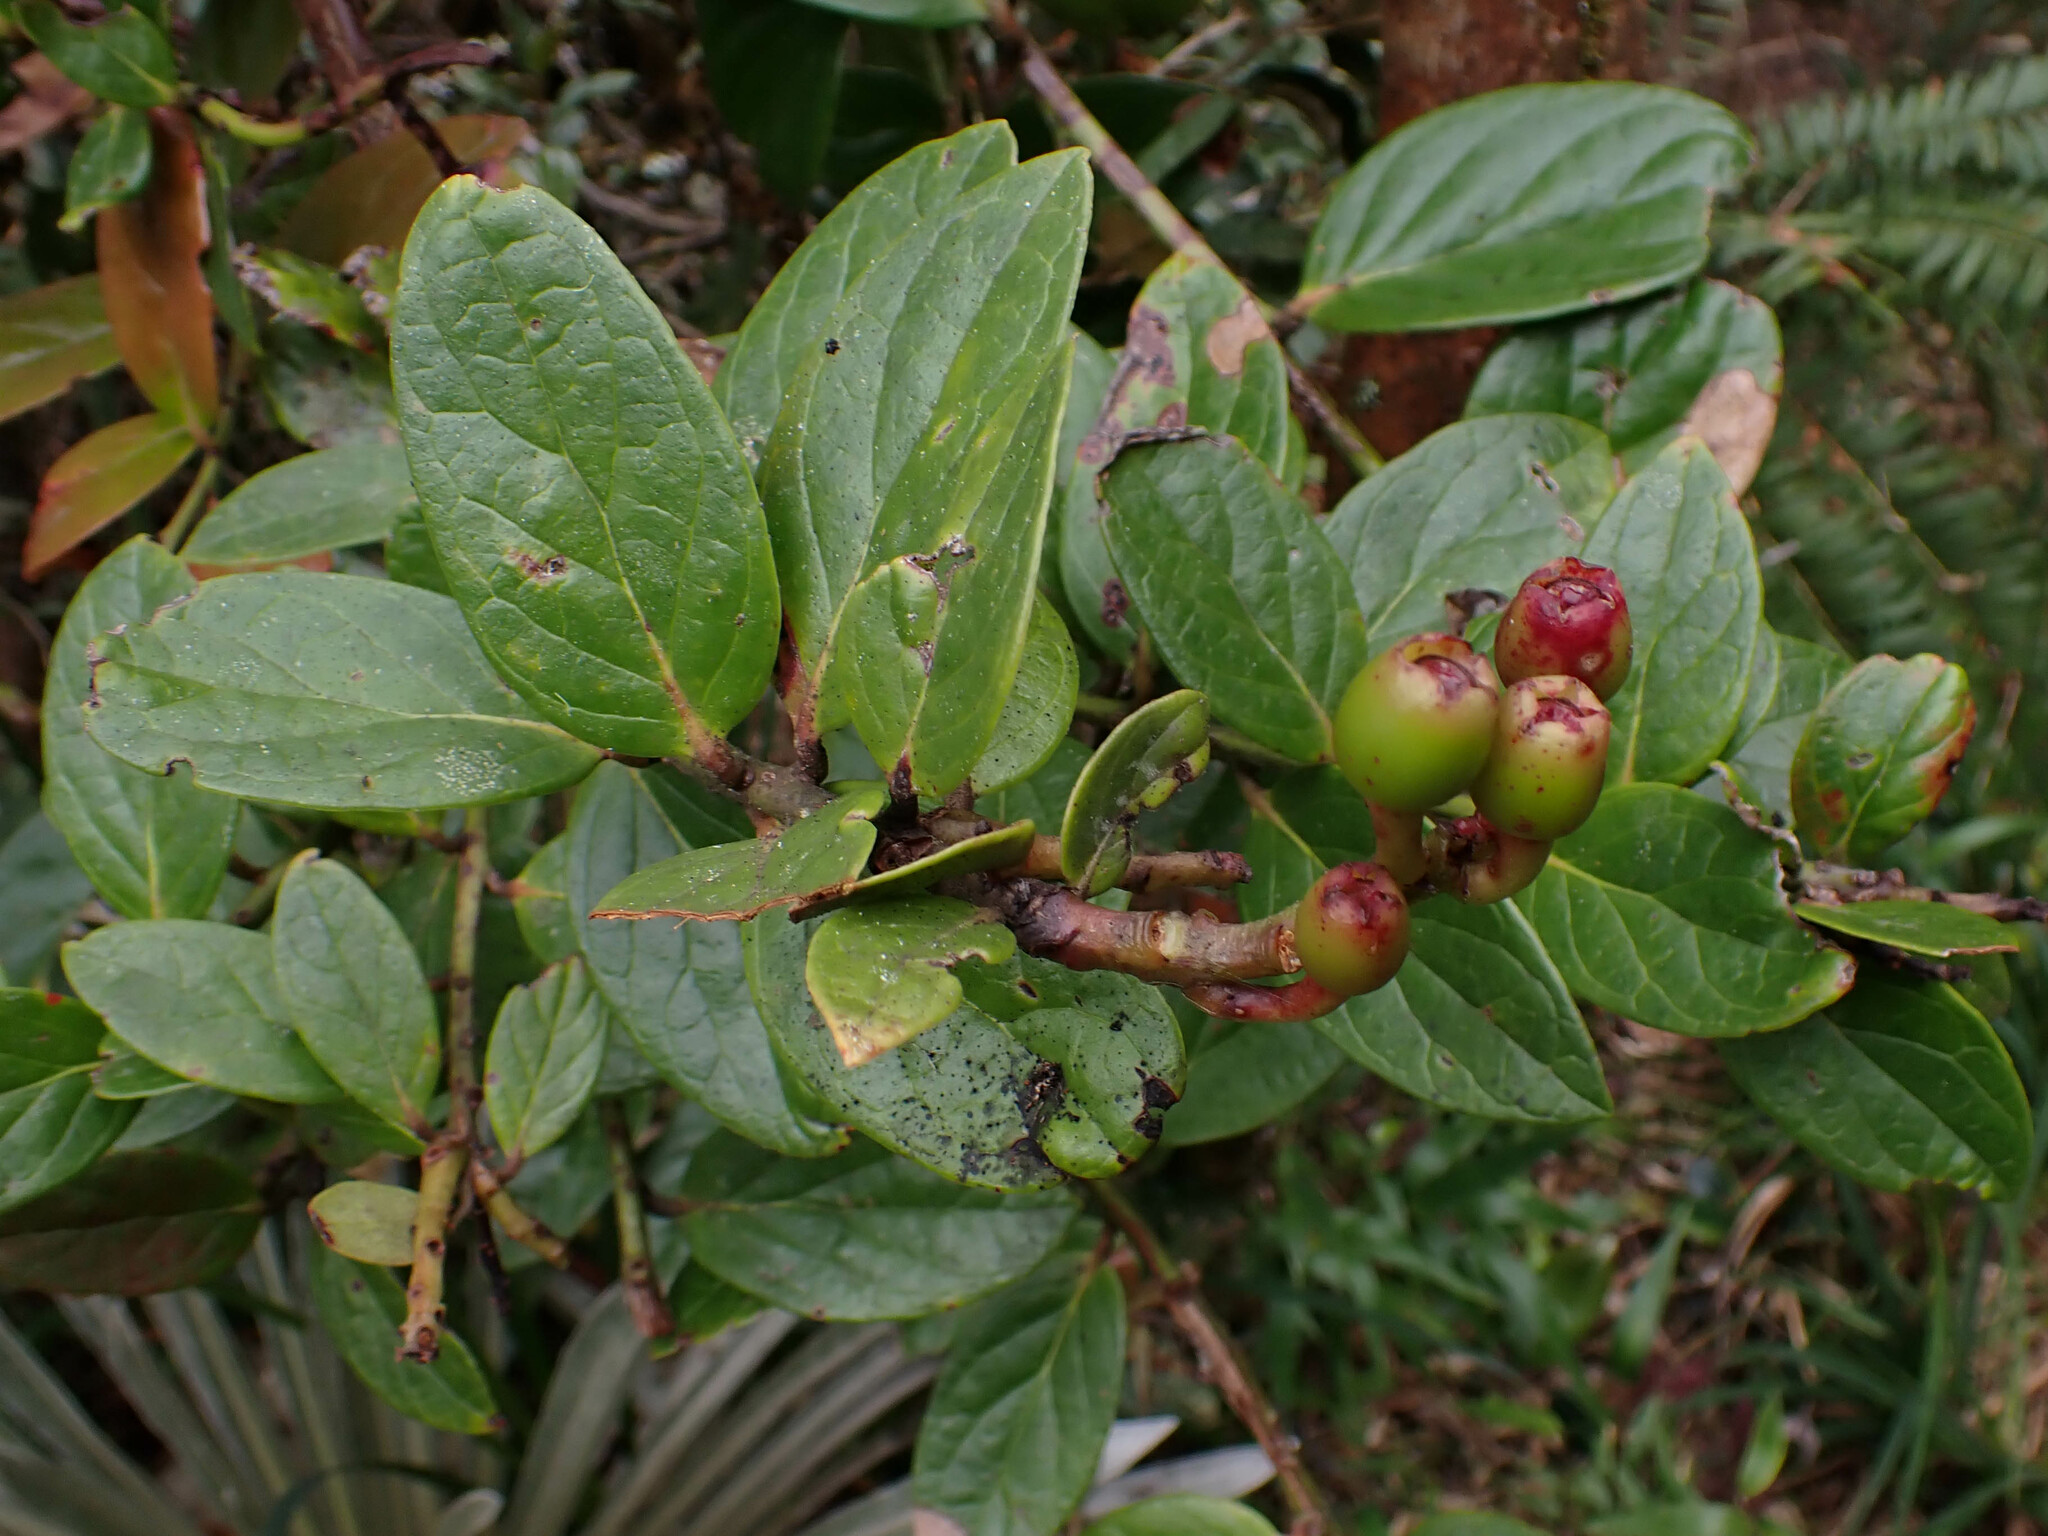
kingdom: Plantae
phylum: Tracheophyta
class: Magnoliopsida
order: Ericales
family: Ericaceae
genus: Macleania
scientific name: Macleania rupestris
